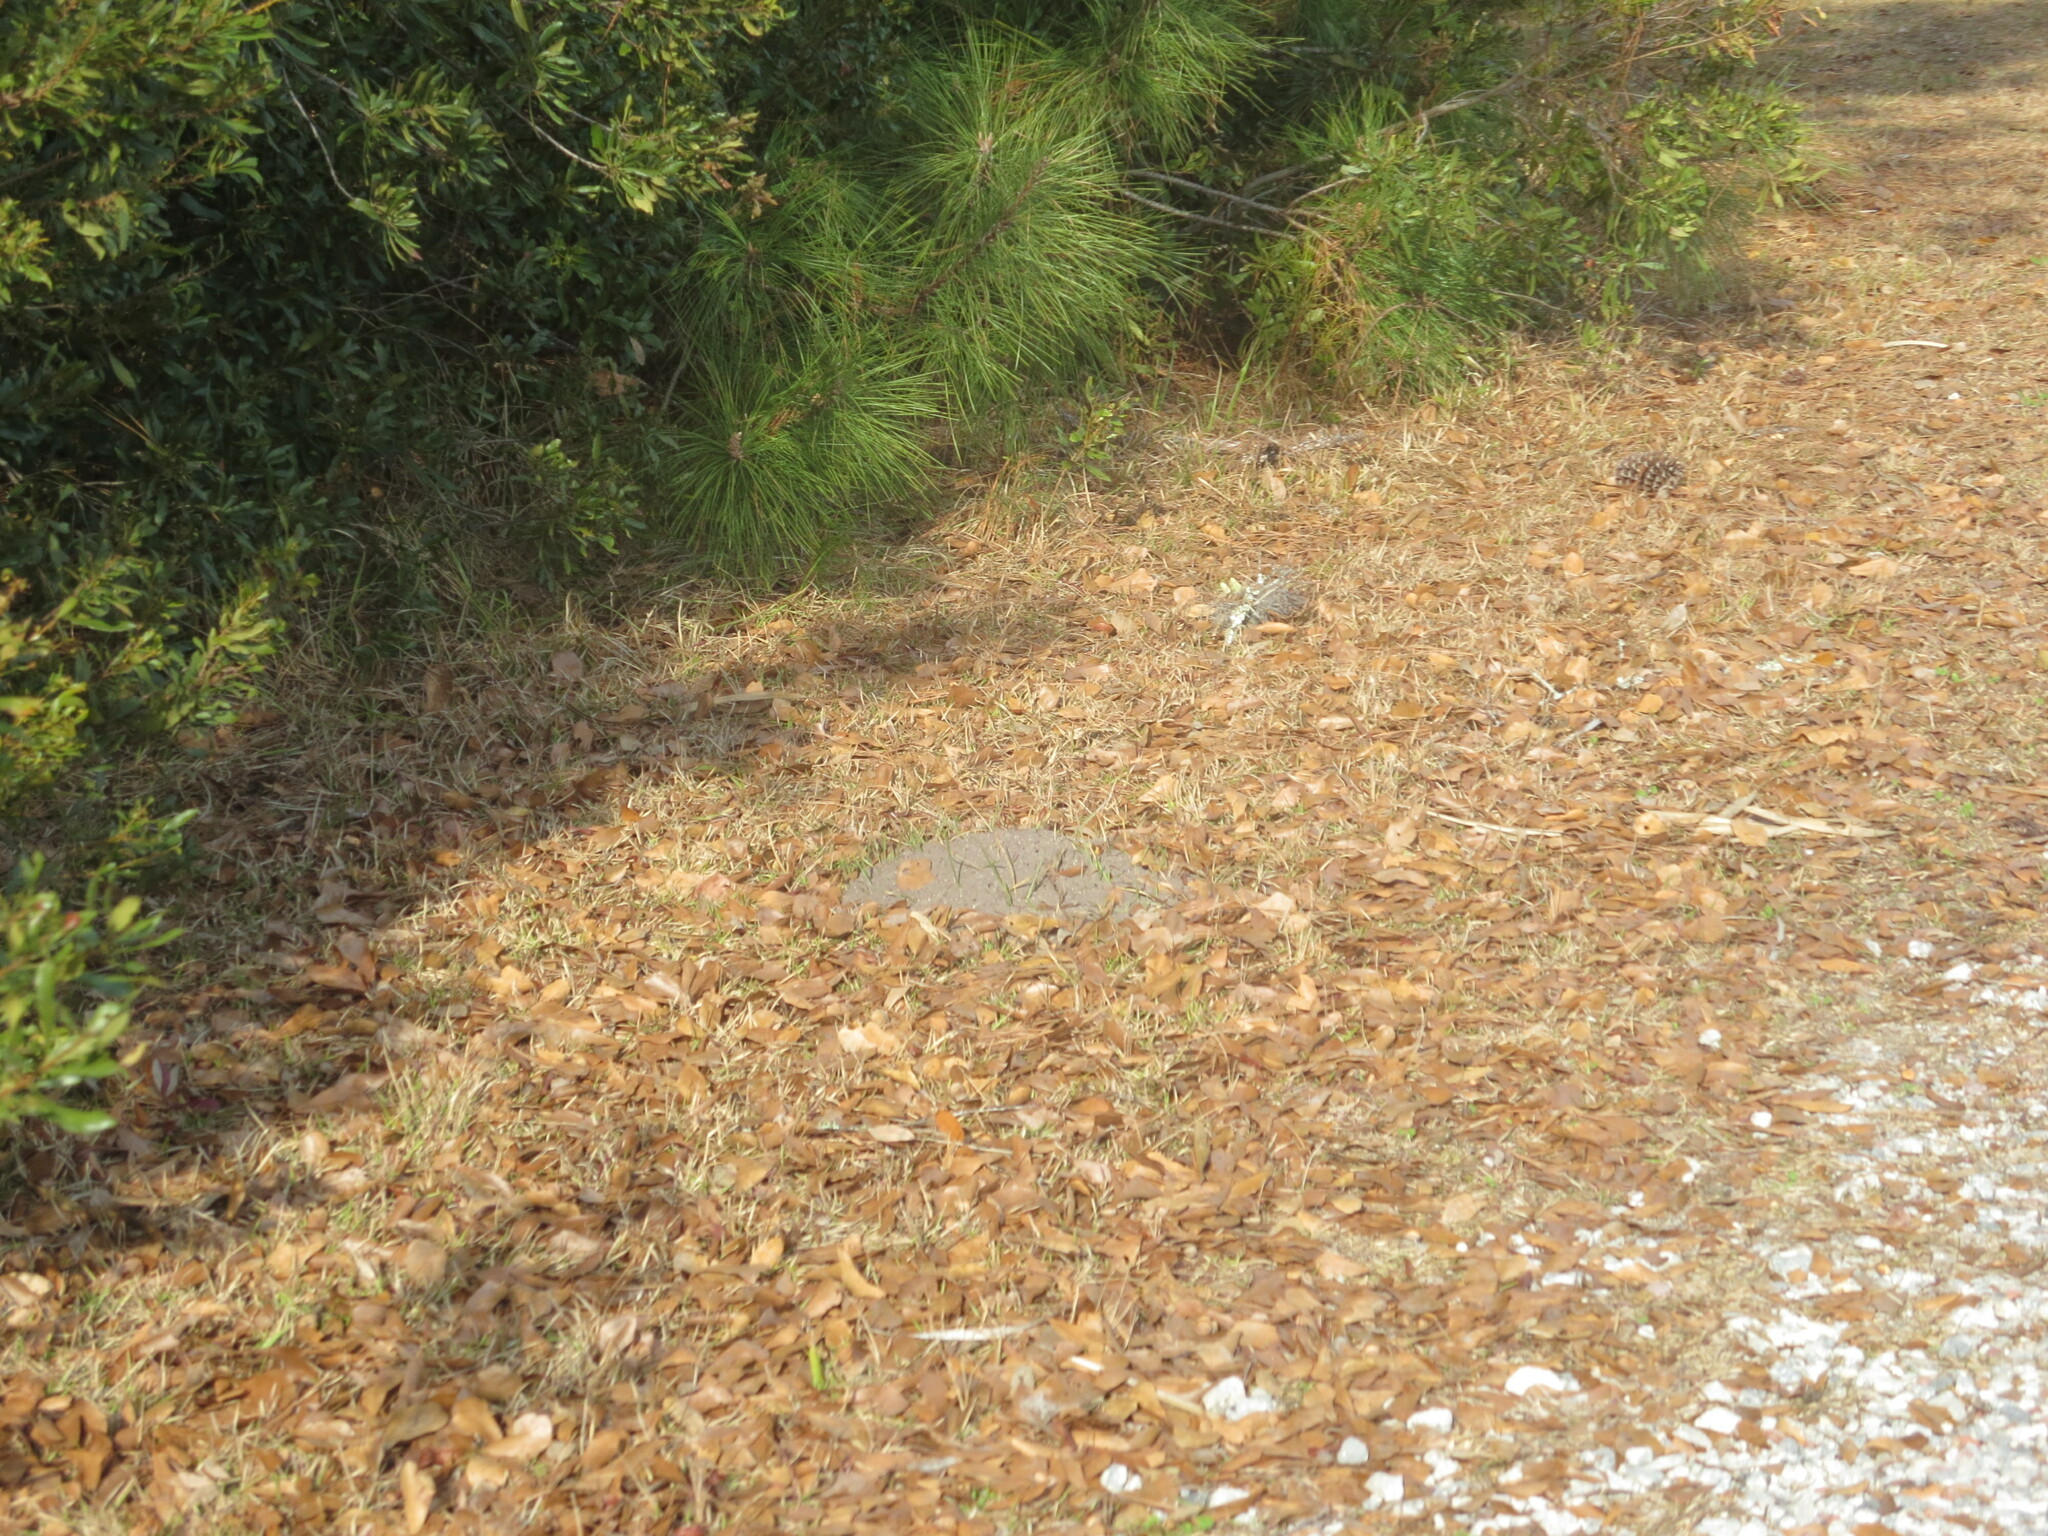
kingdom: Animalia
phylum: Arthropoda
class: Insecta
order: Hymenoptera
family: Formicidae
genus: Solenopsis
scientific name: Solenopsis invicta
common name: Red imported fire ant
